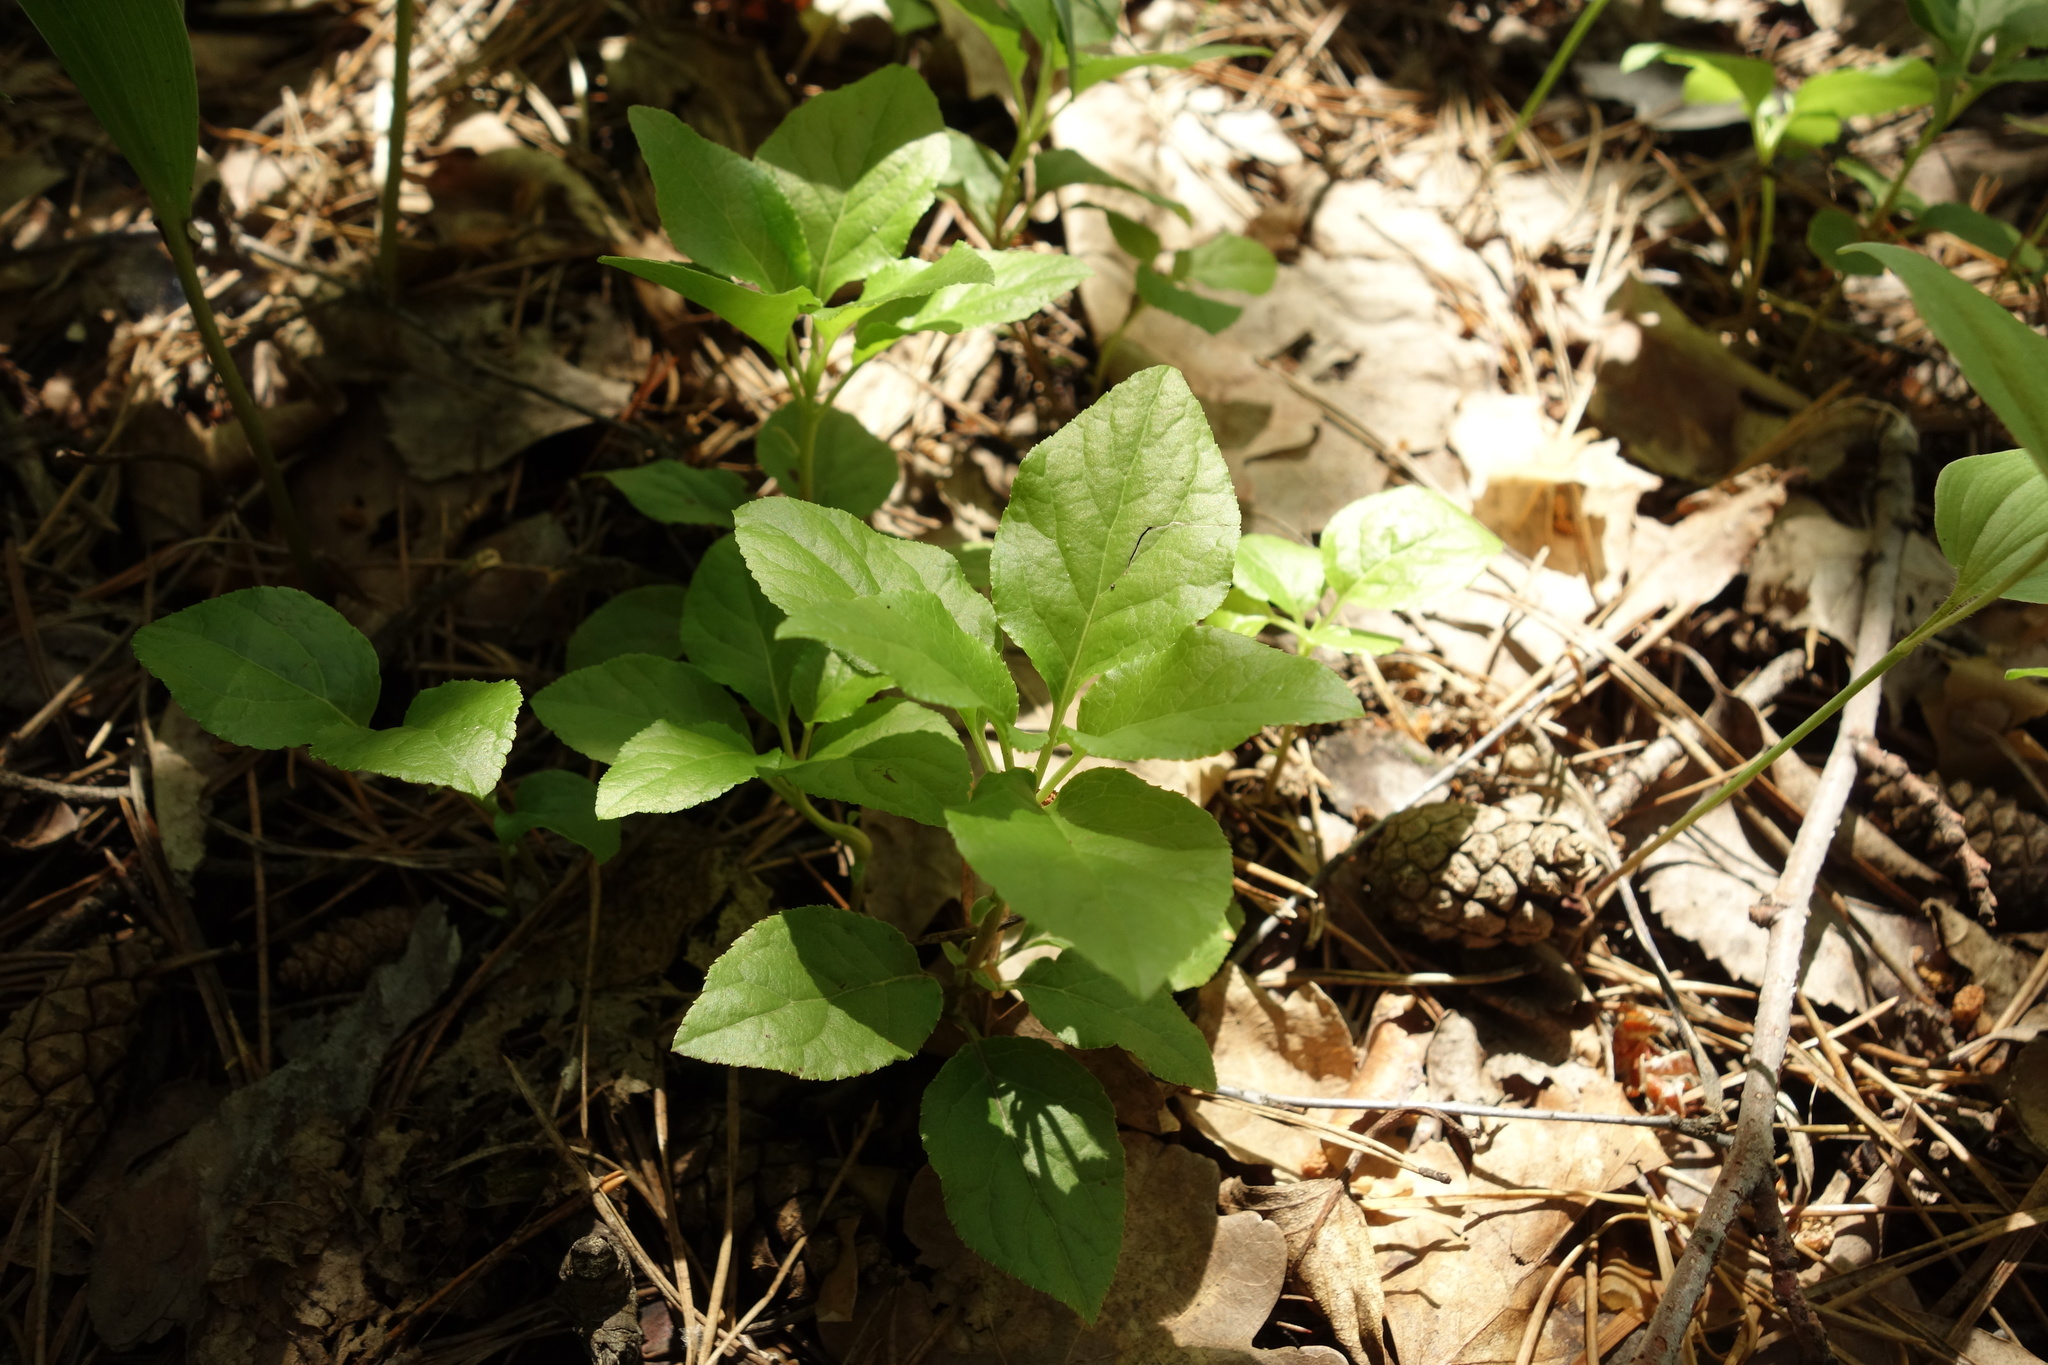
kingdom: Plantae
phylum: Tracheophyta
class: Magnoliopsida
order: Ericales
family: Ericaceae
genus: Orthilia
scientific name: Orthilia secunda
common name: One-sided orthilia
